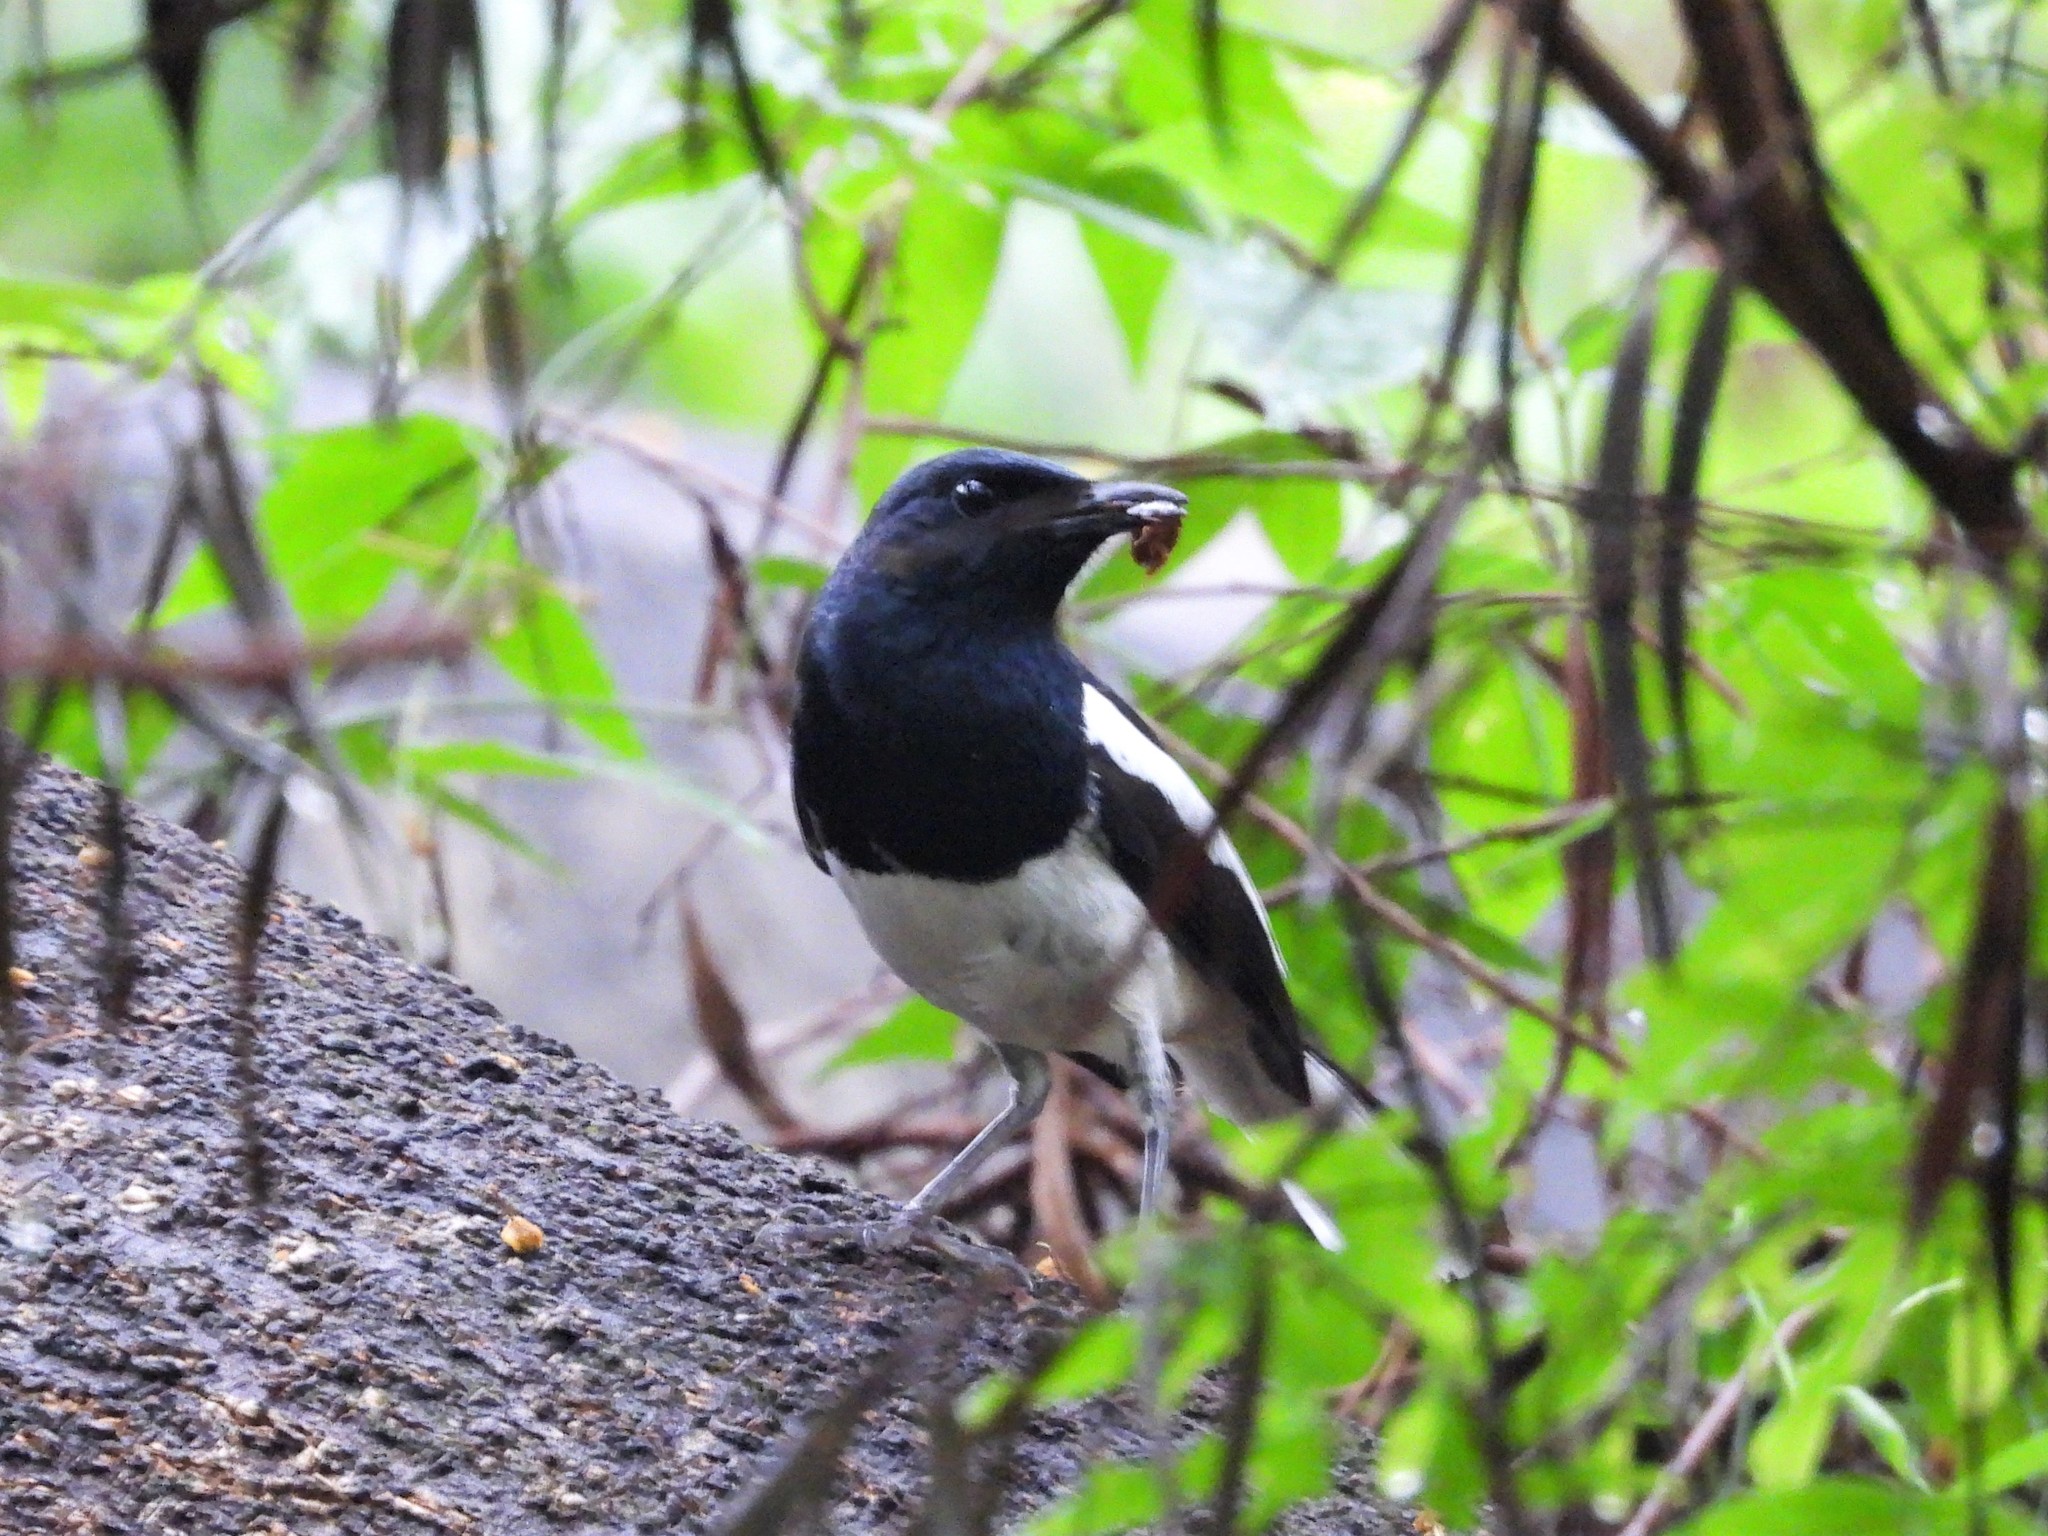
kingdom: Animalia
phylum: Chordata
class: Aves
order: Passeriformes
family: Muscicapidae
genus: Copsychus
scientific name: Copsychus saularis
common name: Oriental magpie-robin
